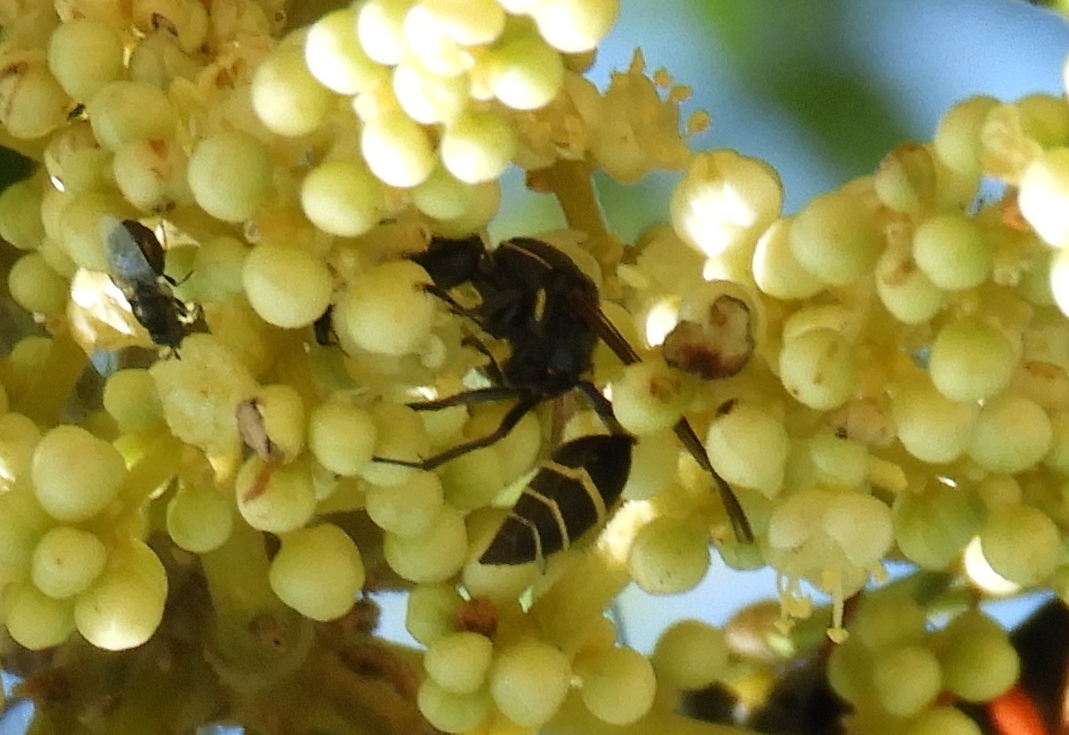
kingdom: Animalia
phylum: Arthropoda
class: Insecta
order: Hymenoptera
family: Vespidae
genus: Myrapetra
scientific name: Myrapetra
